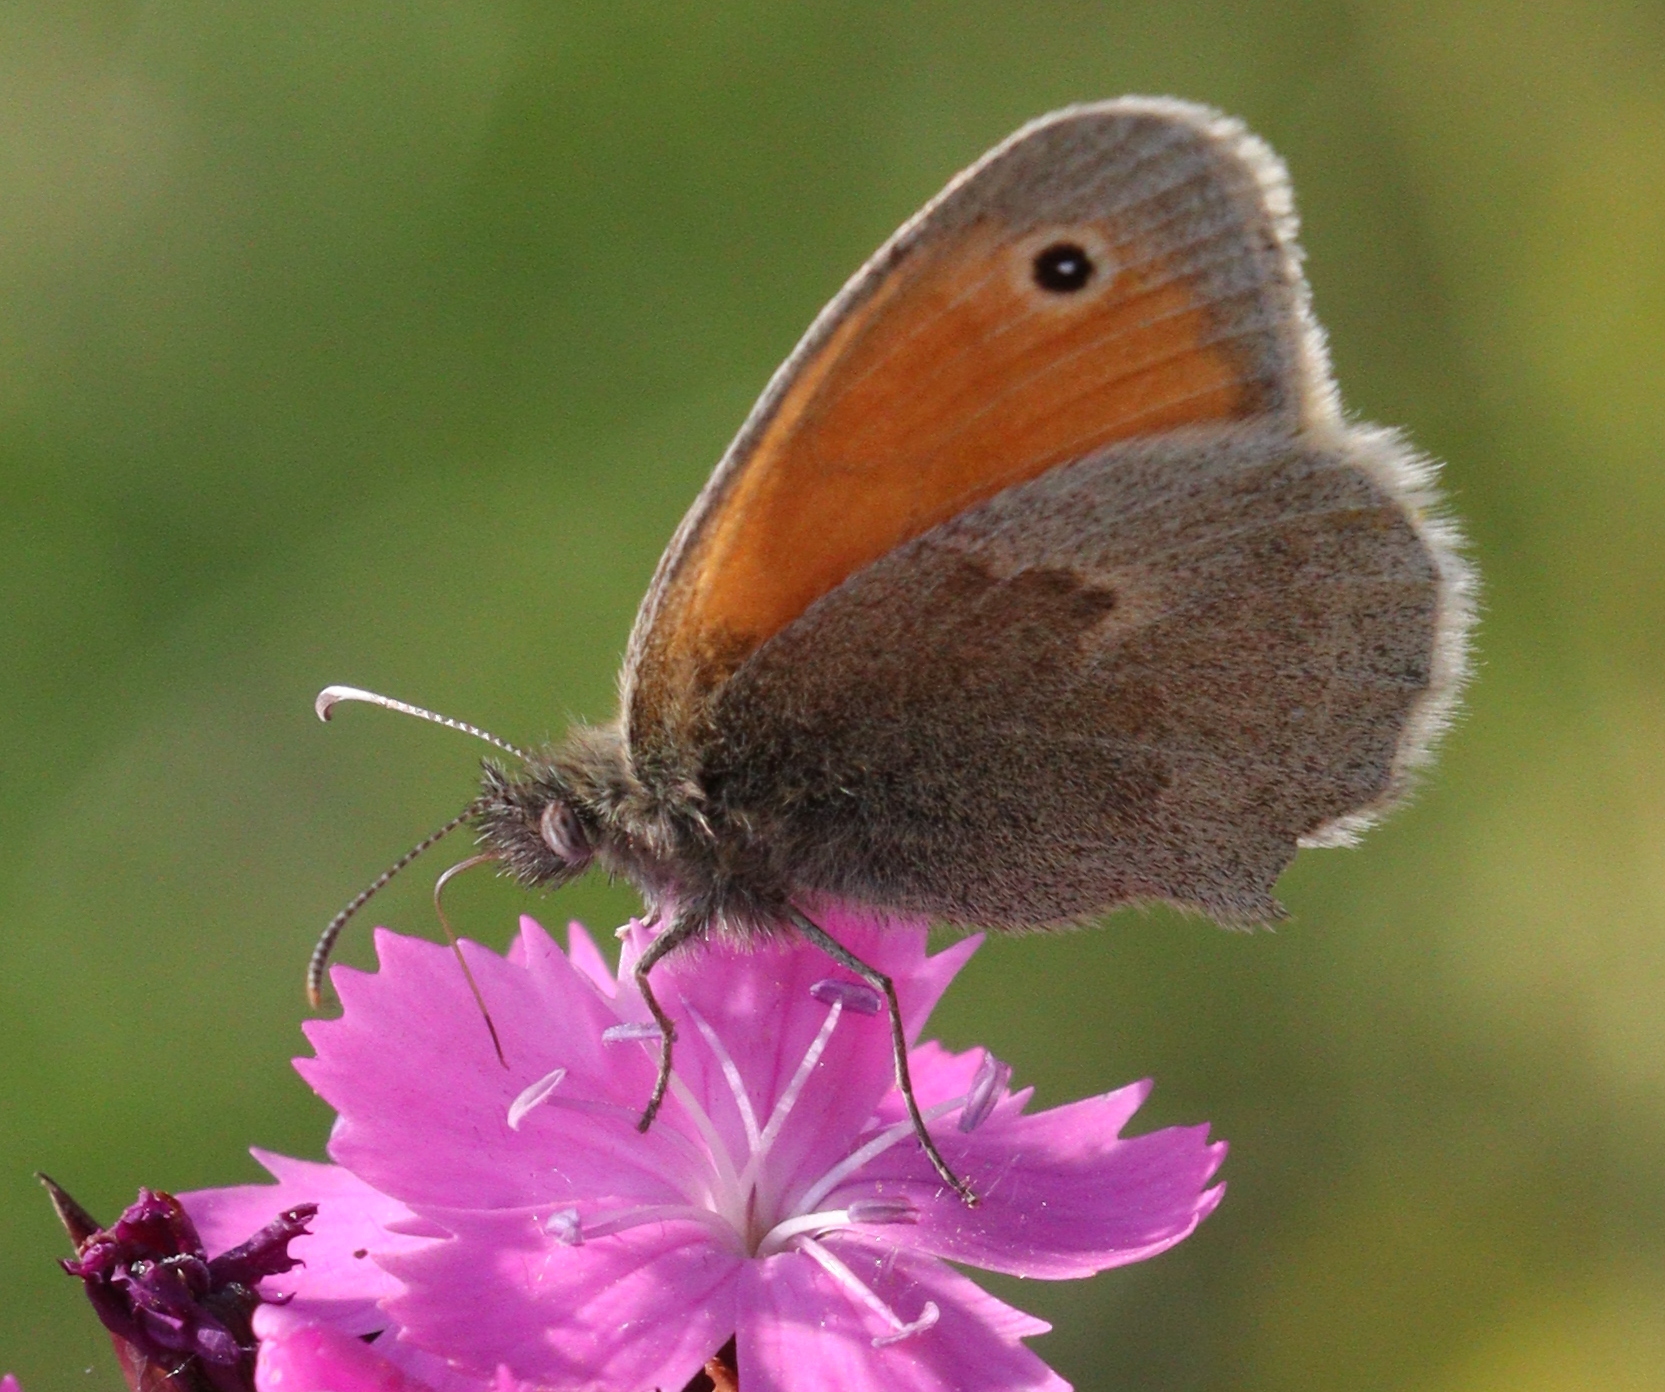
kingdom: Animalia
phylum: Arthropoda
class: Insecta
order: Lepidoptera
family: Nymphalidae
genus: Coenonympha
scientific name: Coenonympha pamphilus
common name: Small heath
